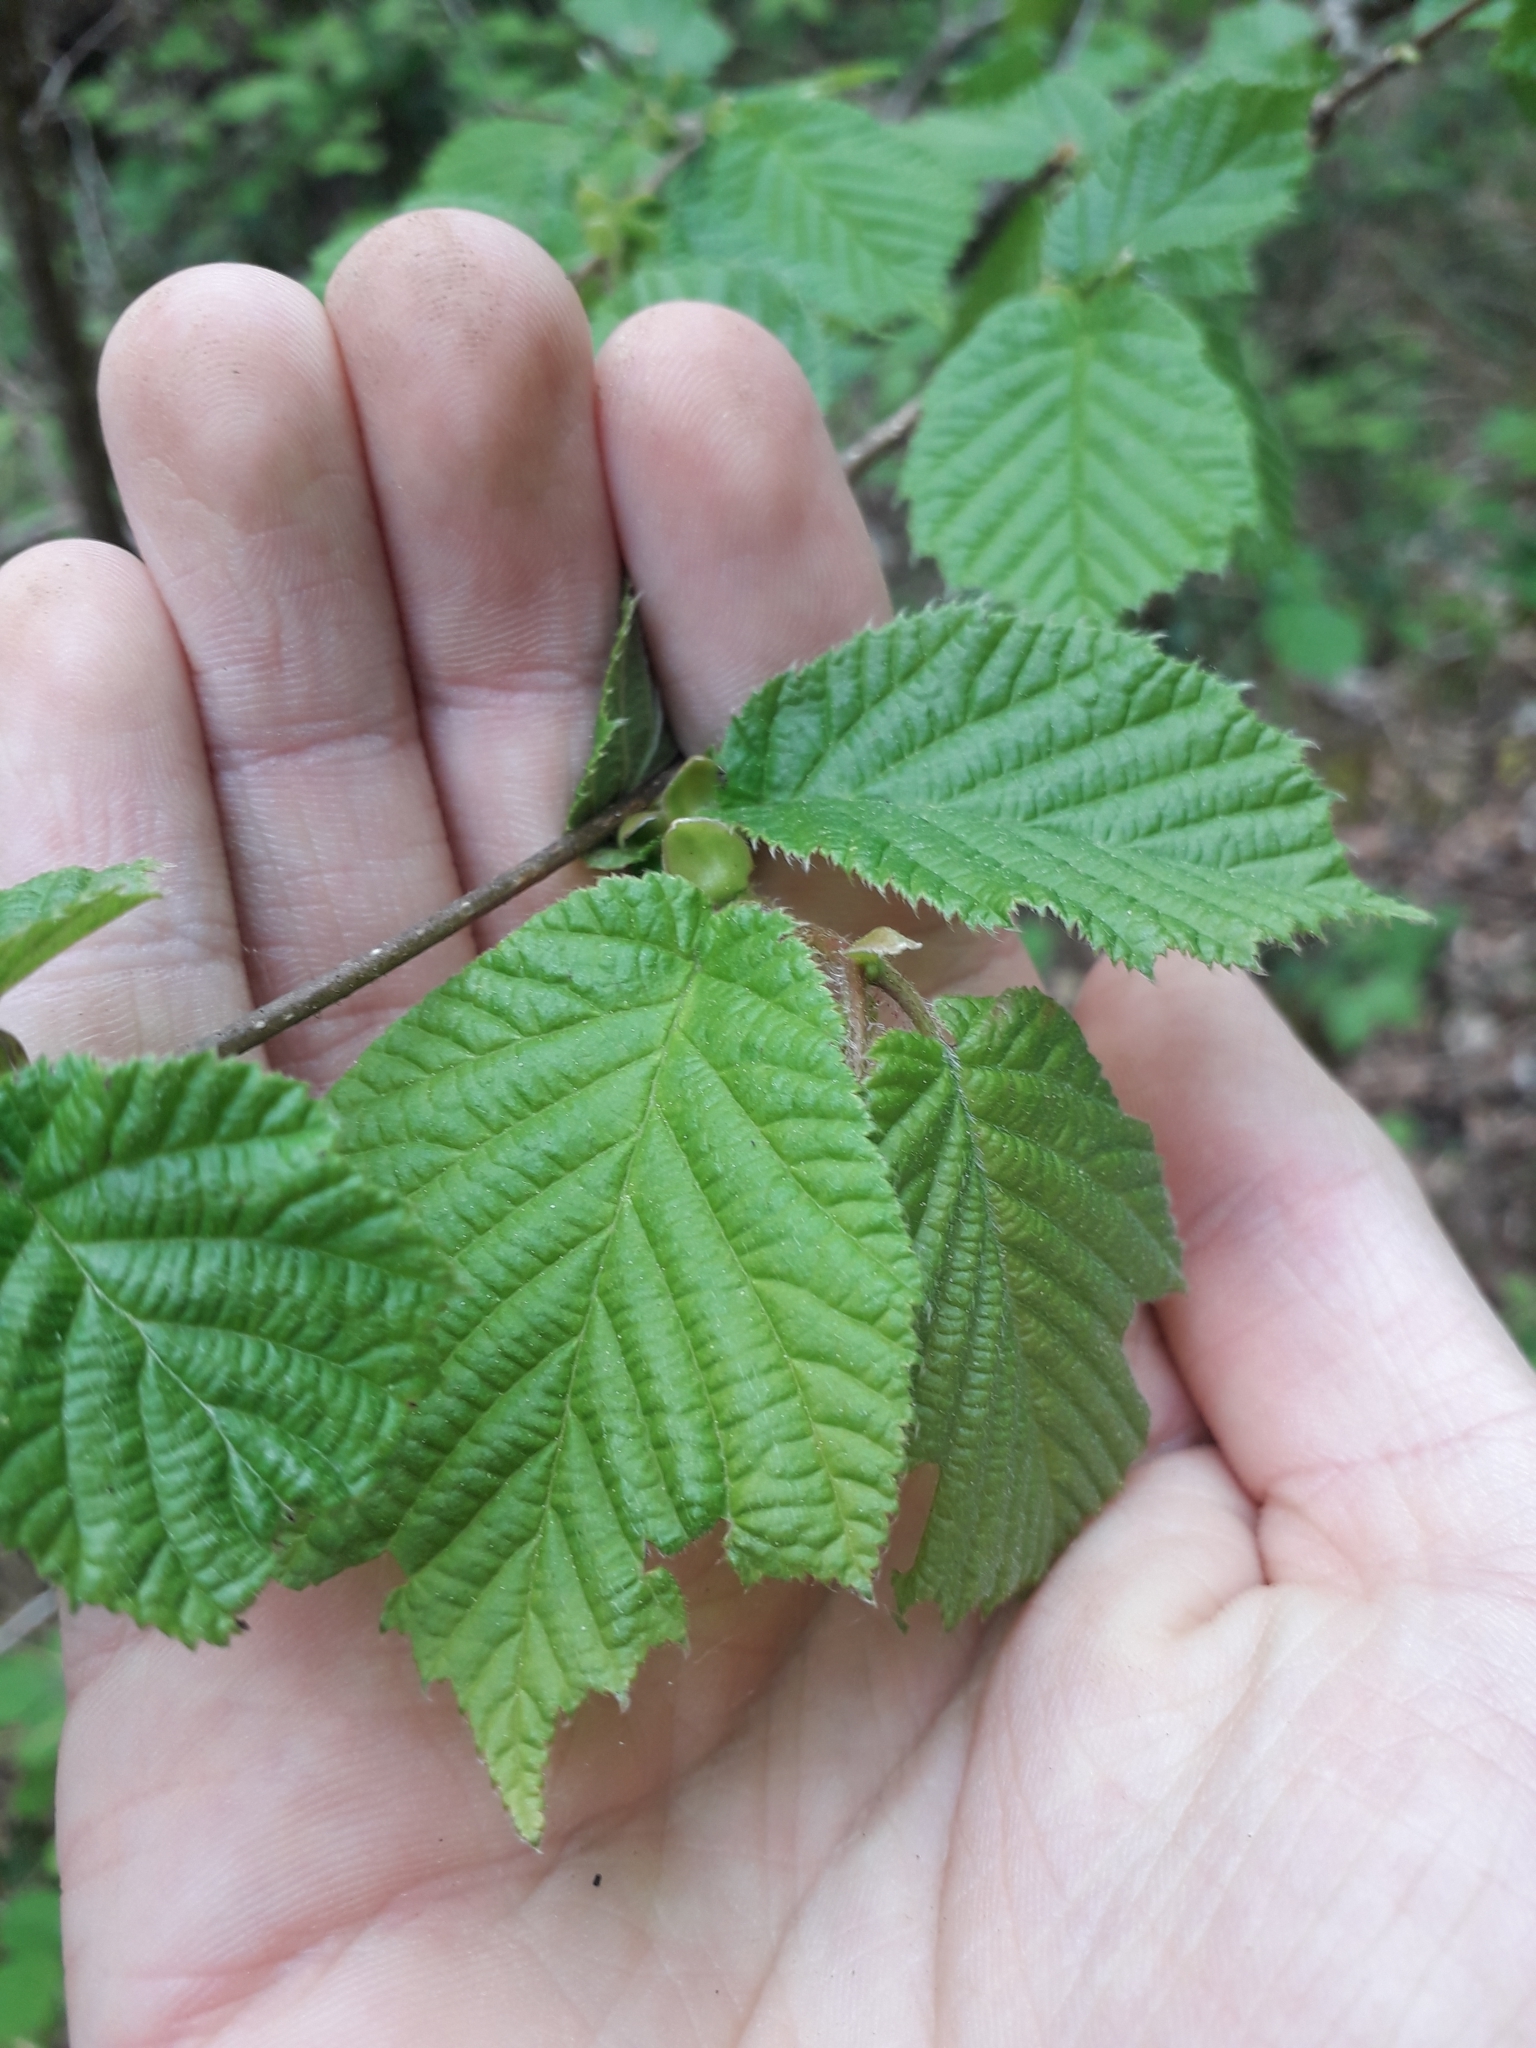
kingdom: Plantae
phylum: Tracheophyta
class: Magnoliopsida
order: Fagales
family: Betulaceae
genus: Corylus
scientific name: Corylus avellana
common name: European hazel
